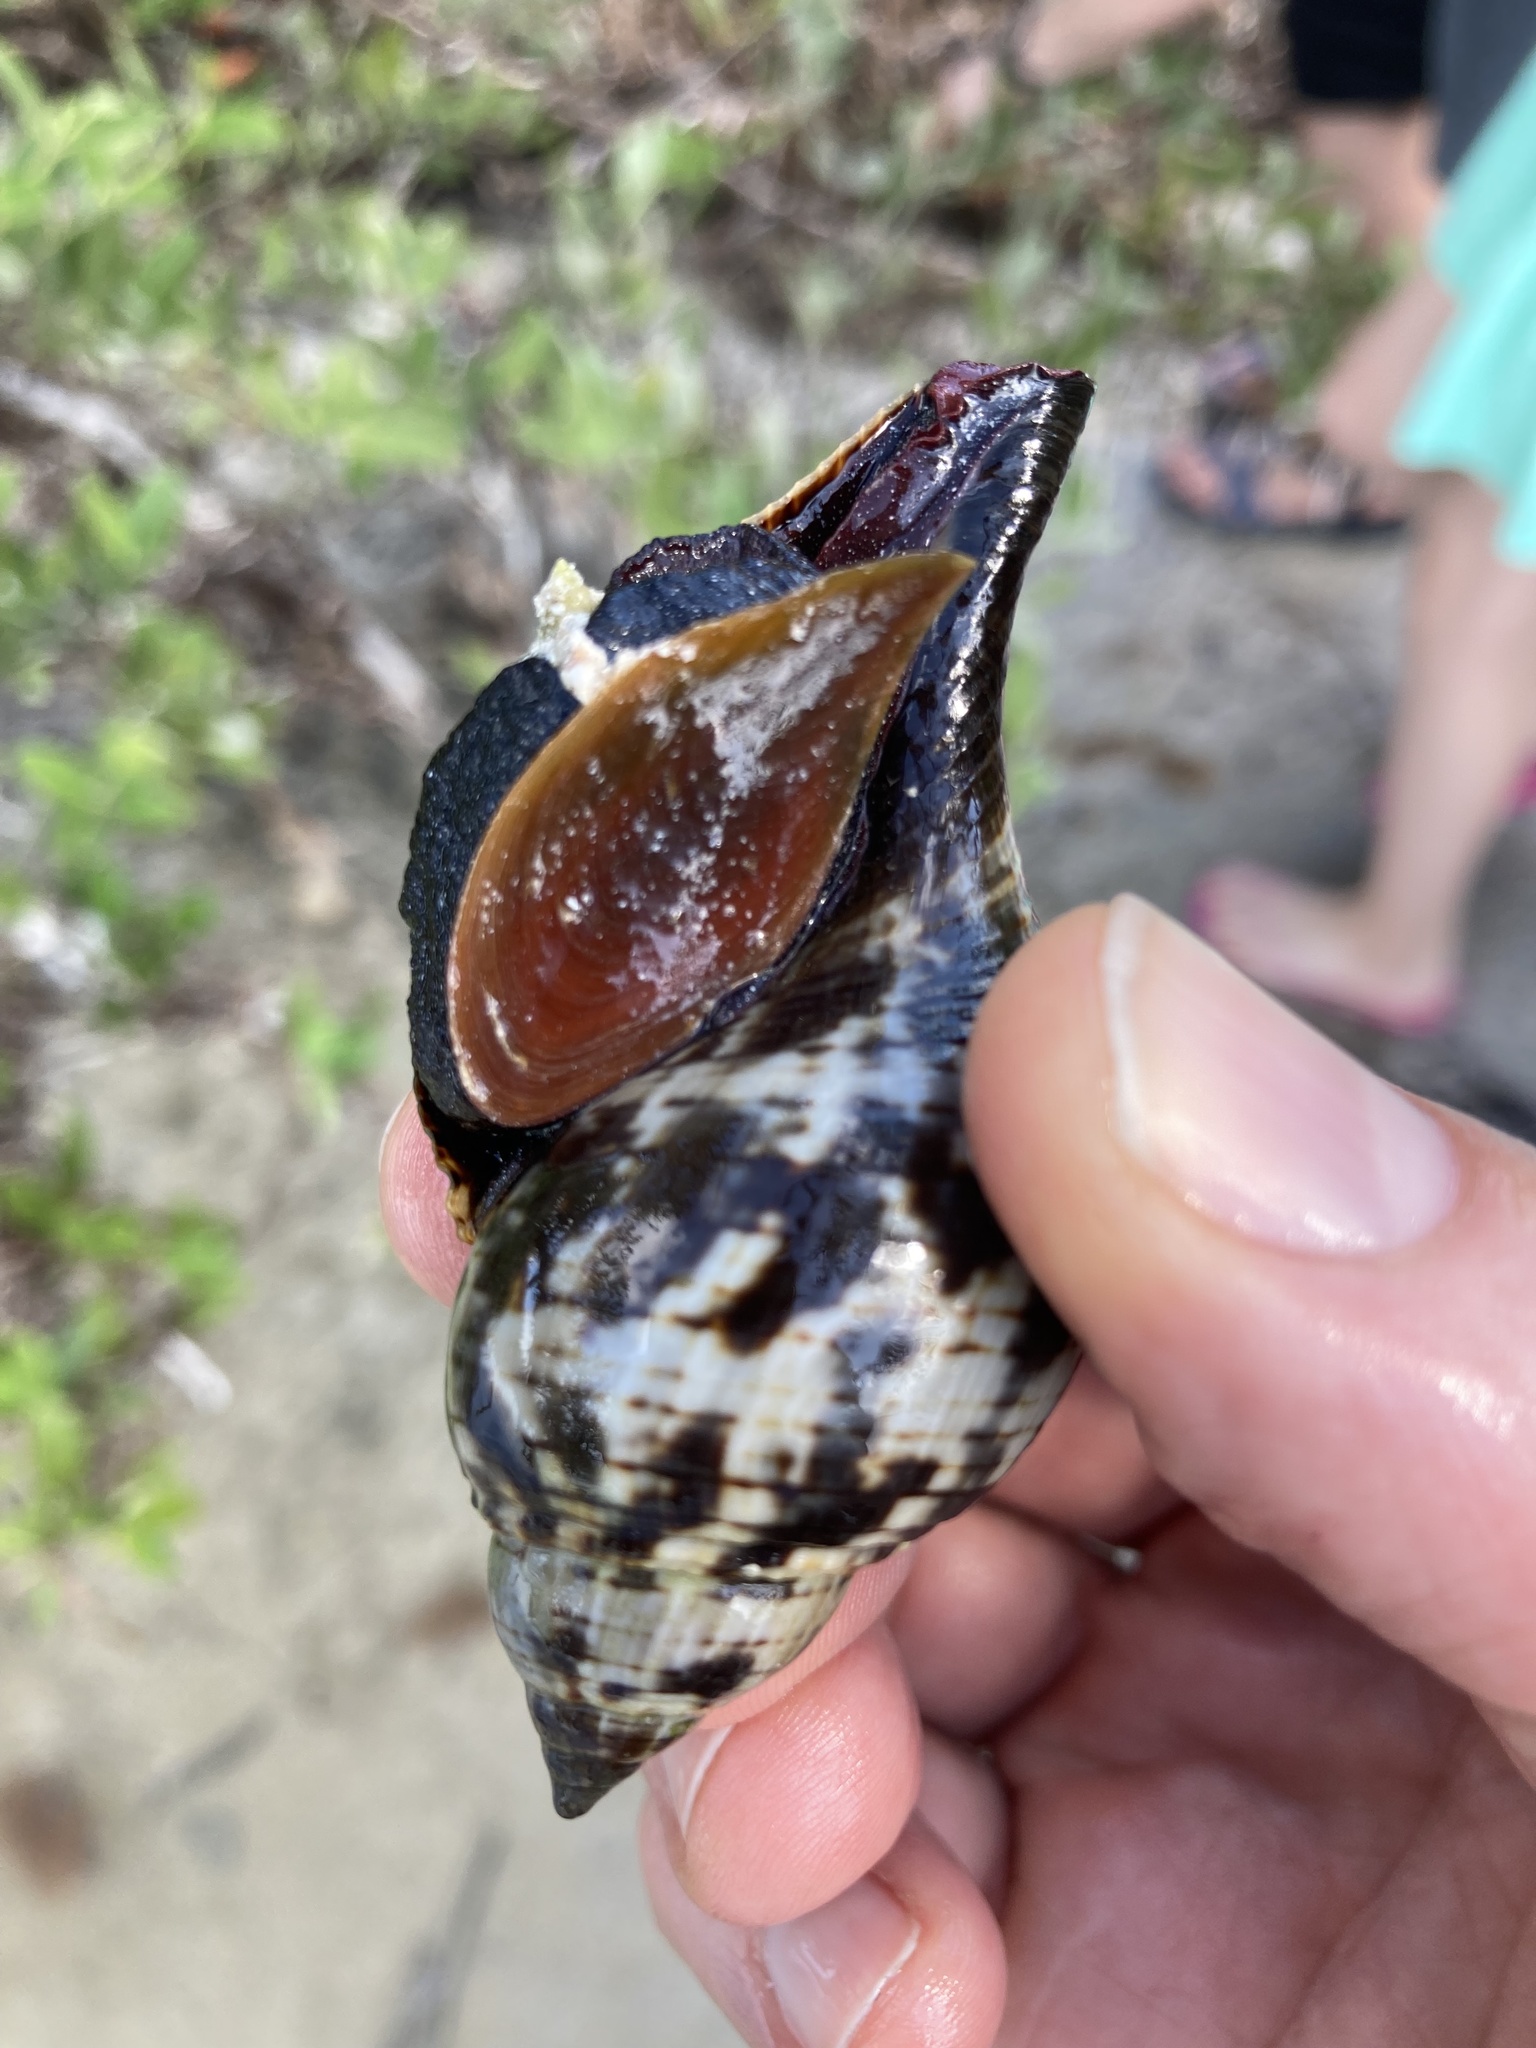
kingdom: Animalia
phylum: Mollusca
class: Gastropoda
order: Neogastropoda
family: Fasciolariidae
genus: Fasciolaria
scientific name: Fasciolaria tulipa
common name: True tulip
